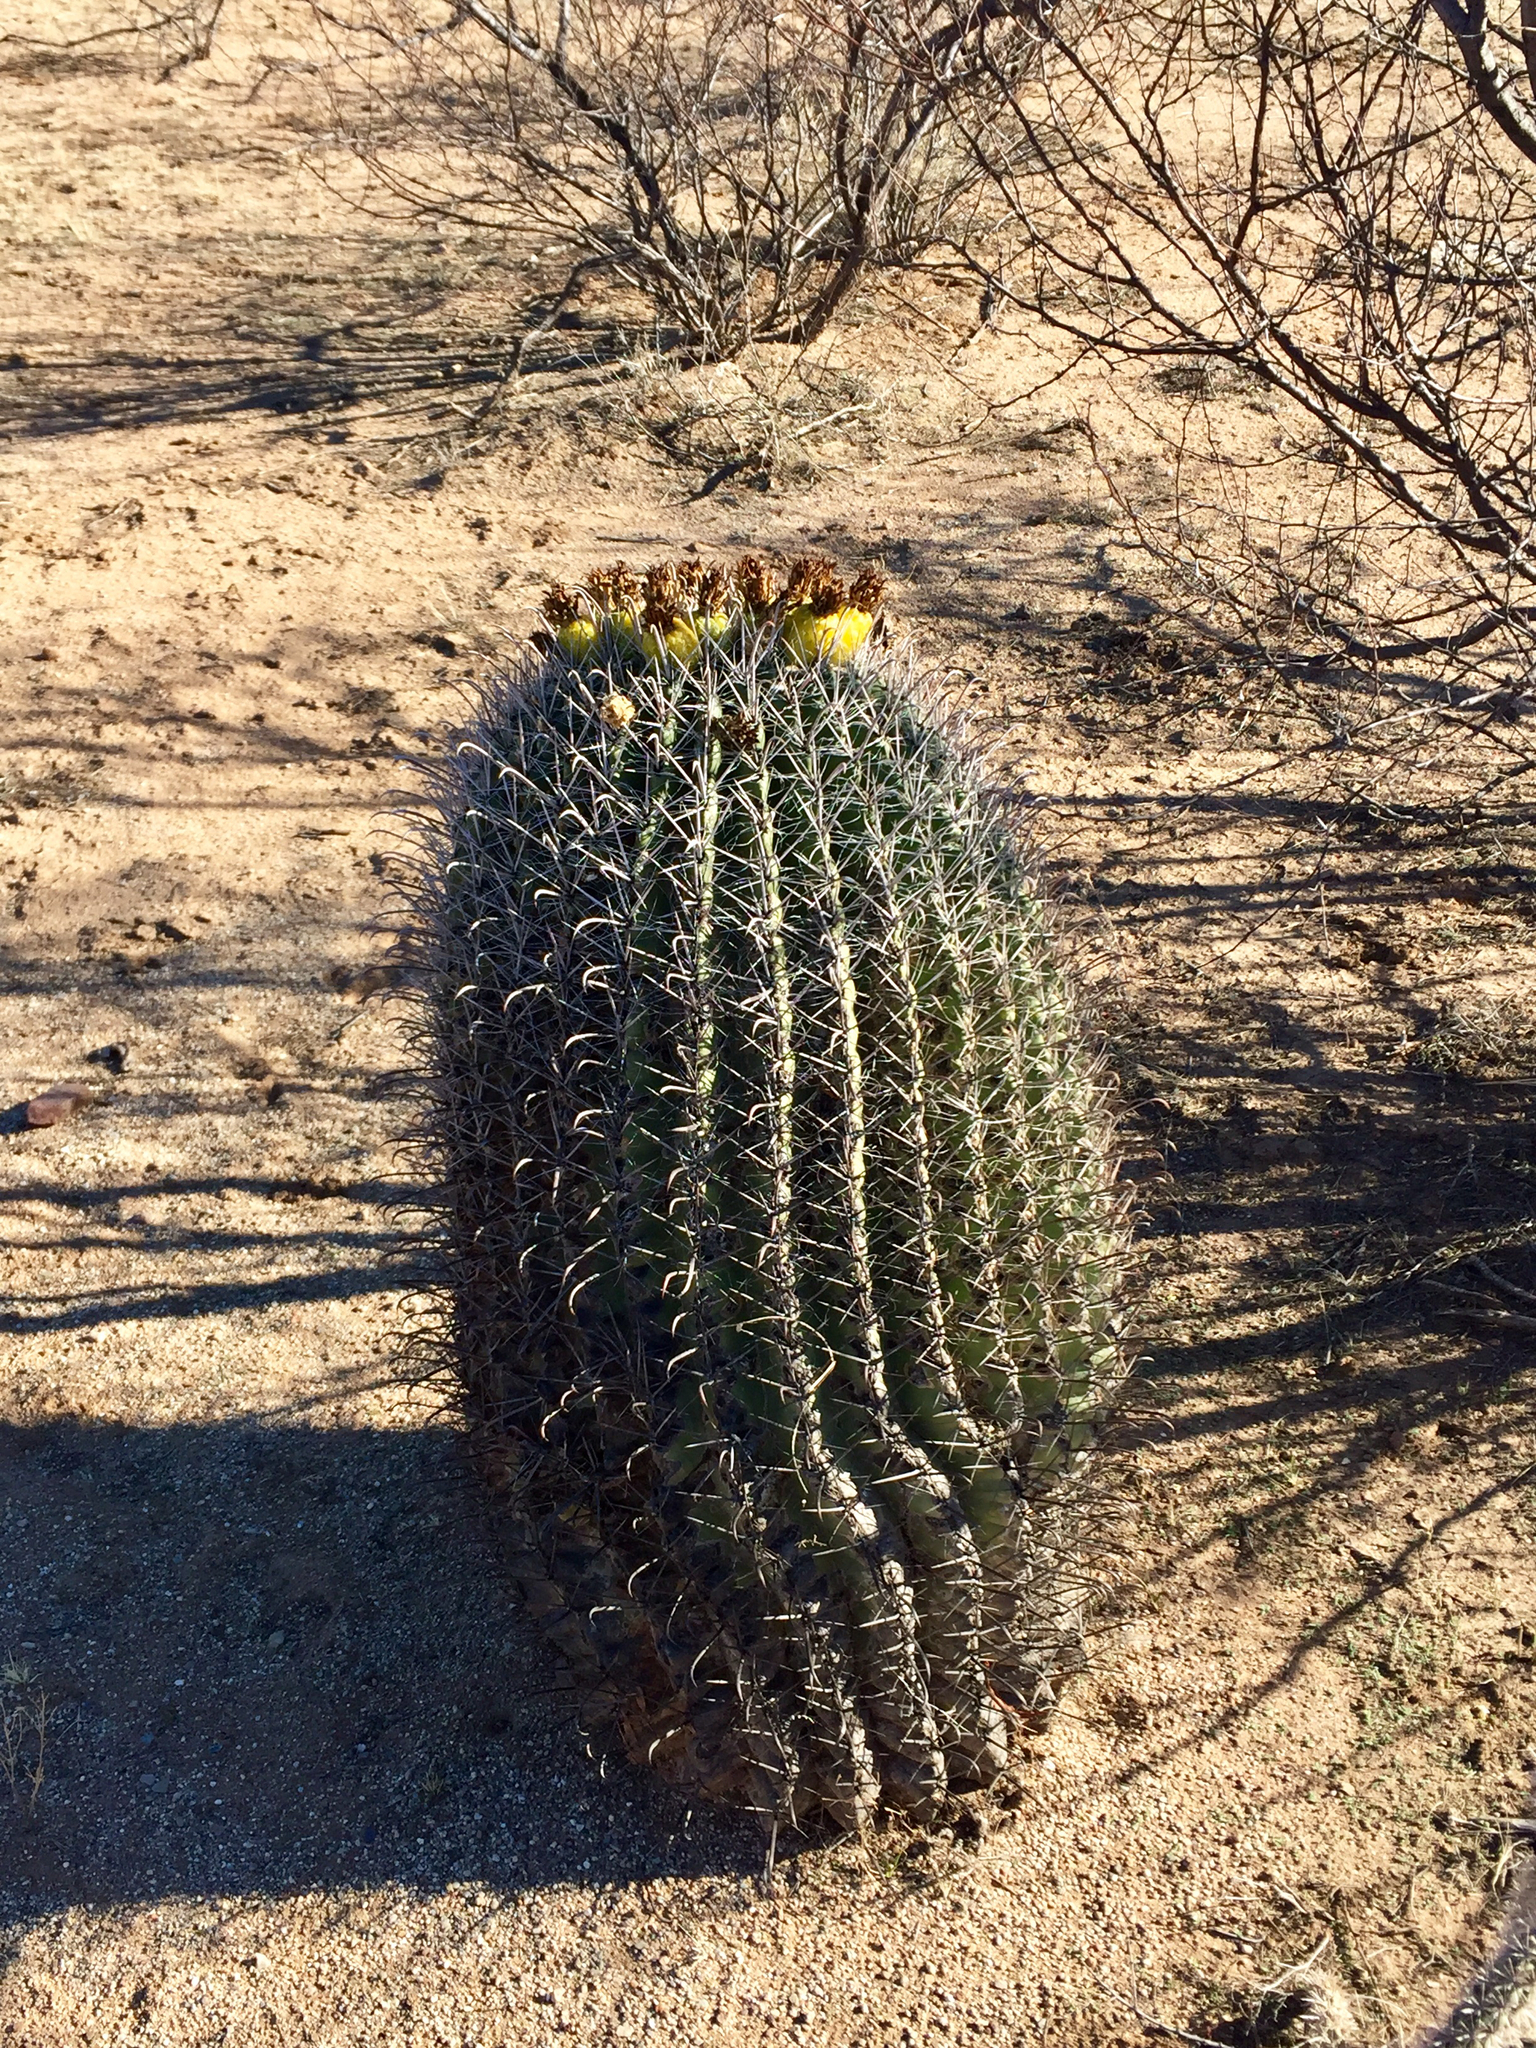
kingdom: Plantae
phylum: Tracheophyta
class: Magnoliopsida
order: Caryophyllales
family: Cactaceae
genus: Ferocactus
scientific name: Ferocactus wislizeni
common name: Candy barrel cactus
